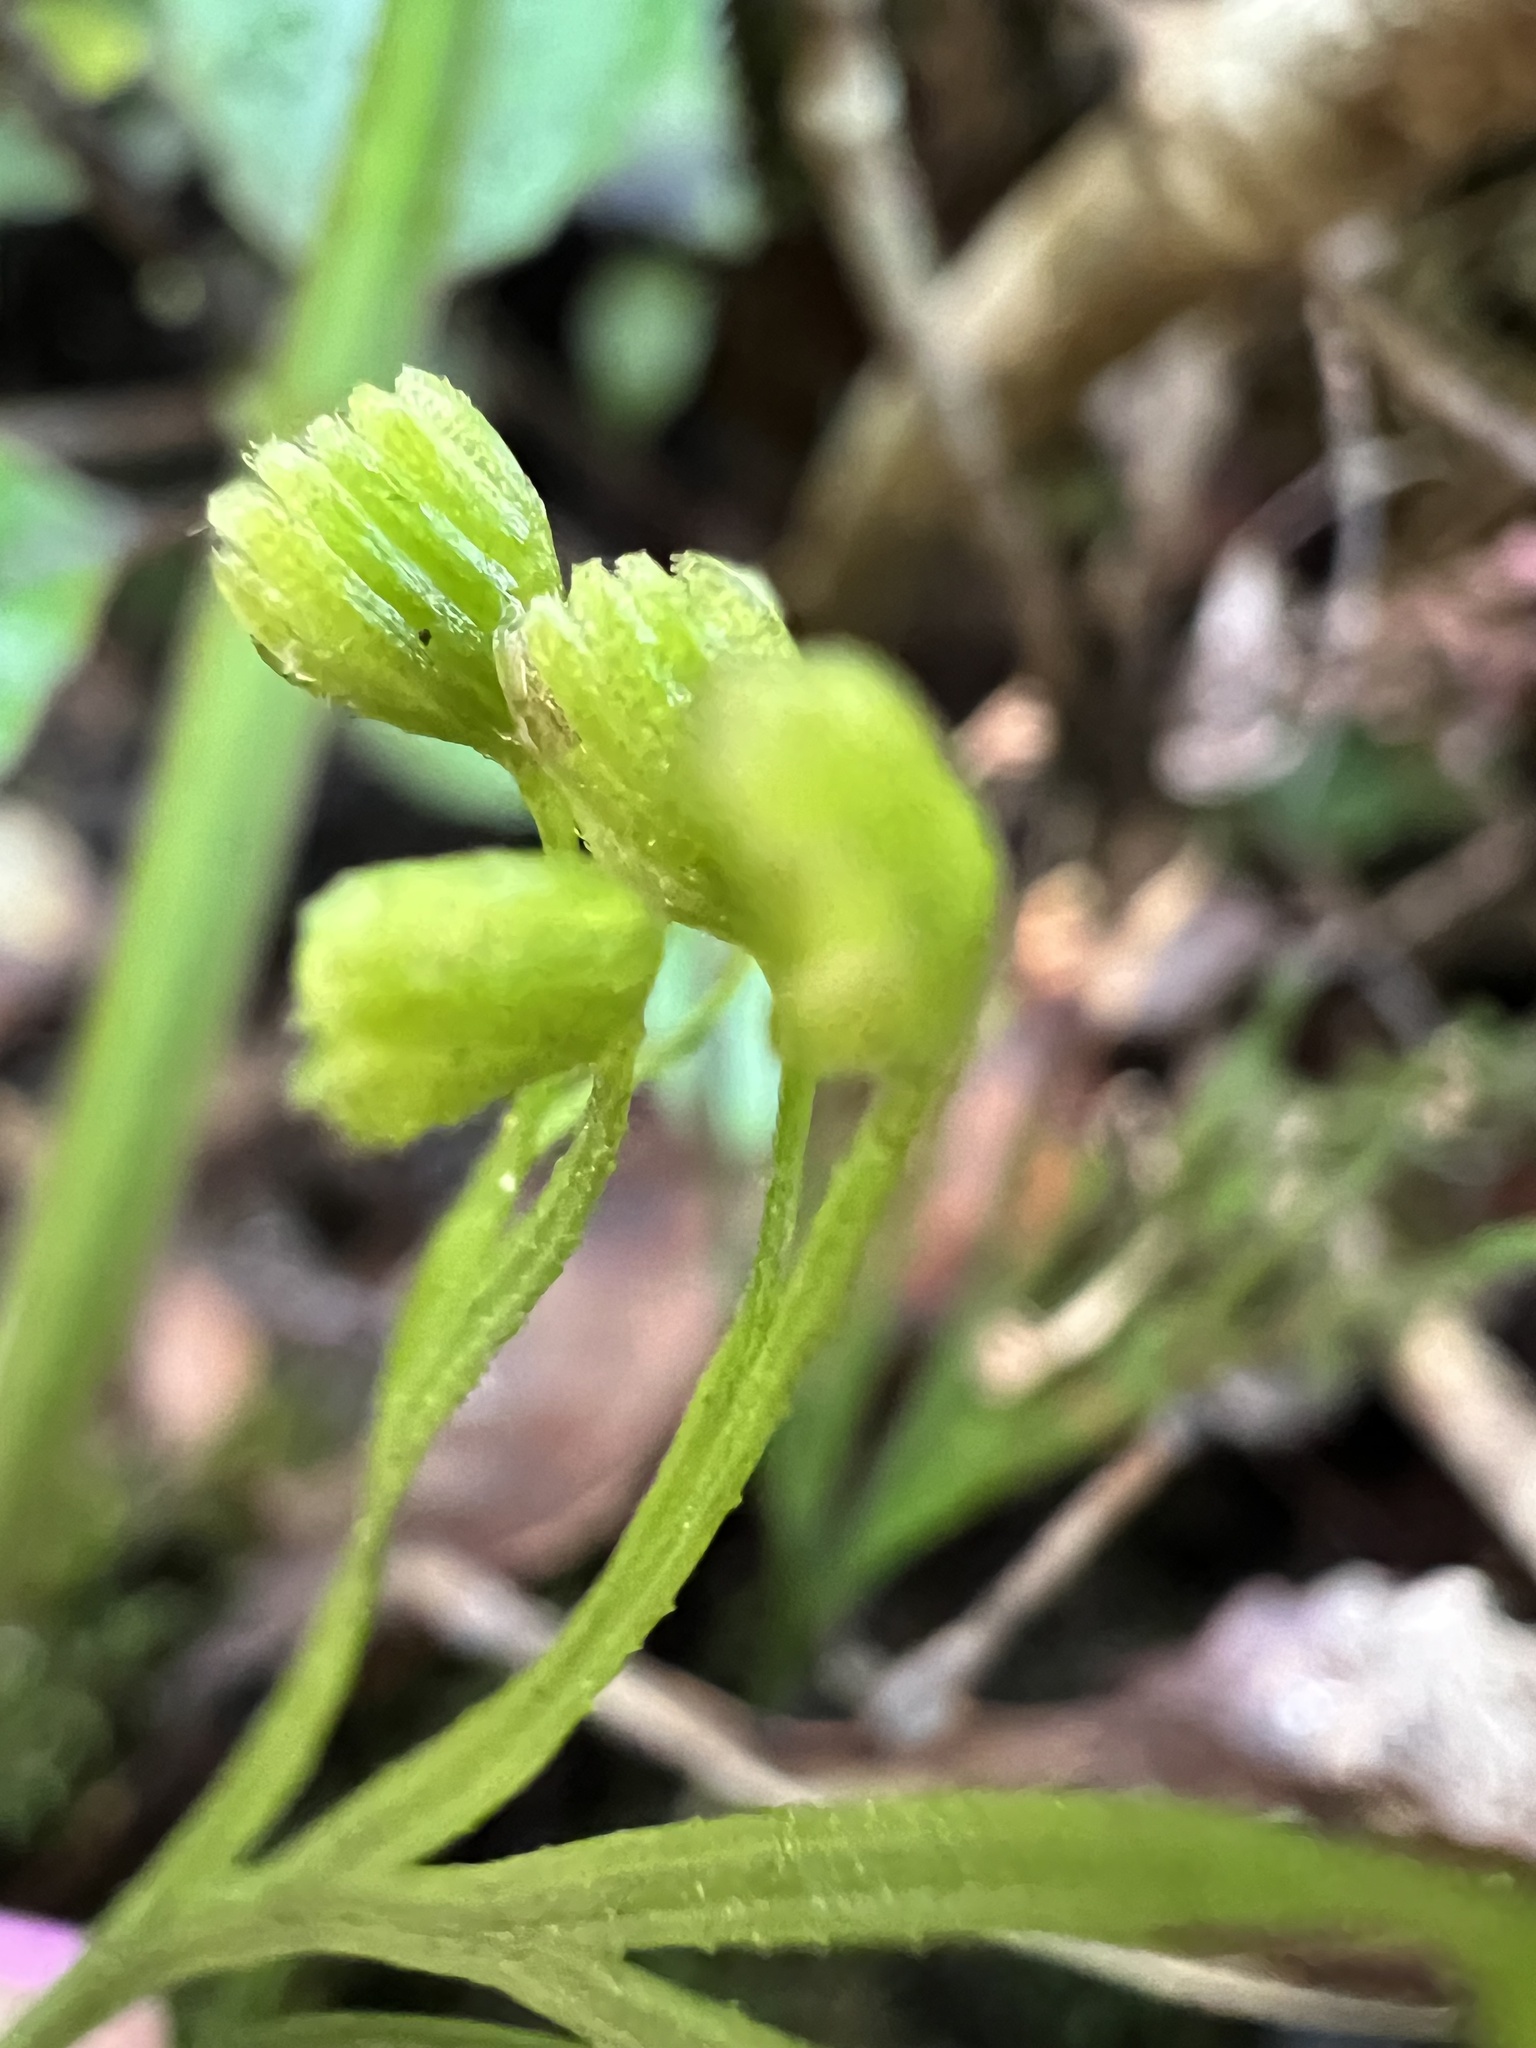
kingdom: Plantae
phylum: Tracheophyta
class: Polypodiopsida
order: Schizaeales
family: Schizaeaceae
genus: Schizaea
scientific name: Schizaea dichotoma
